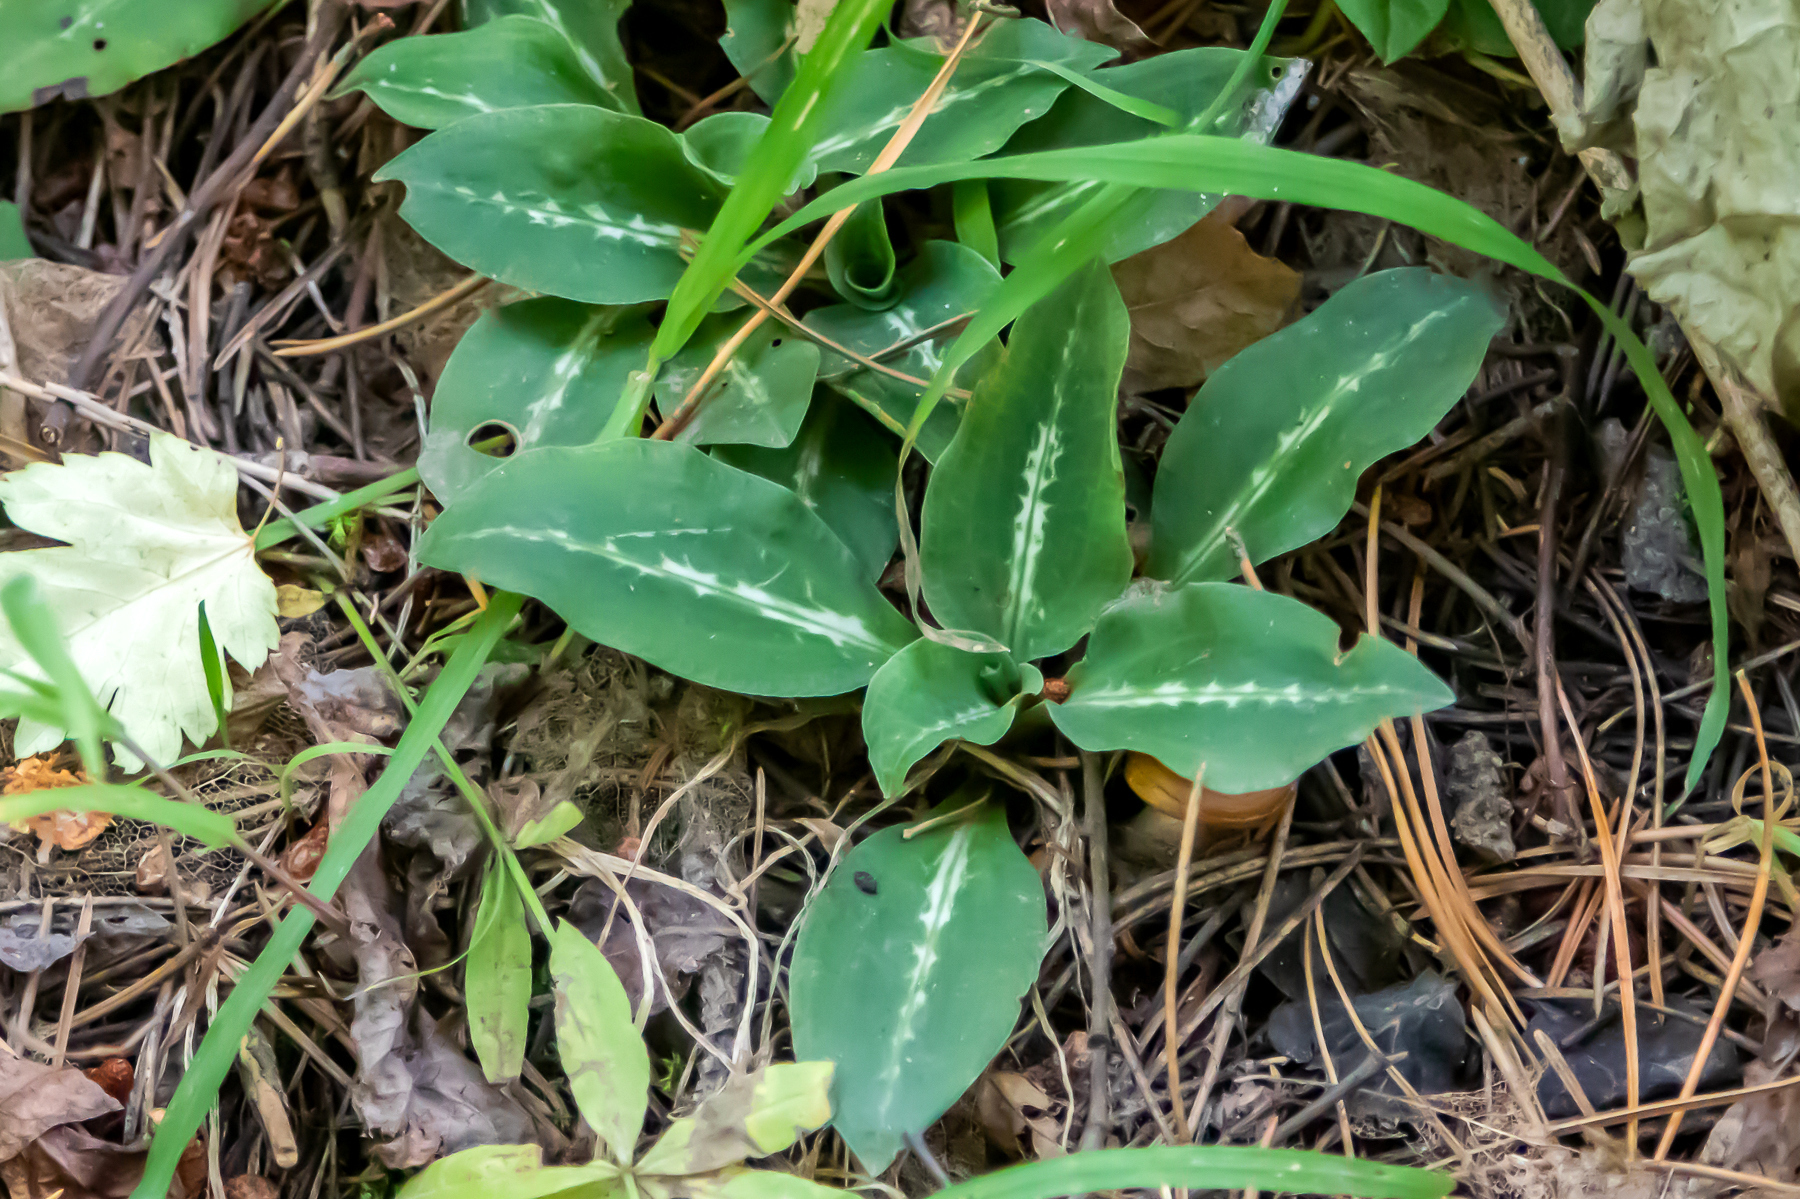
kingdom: Plantae
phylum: Tracheophyta
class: Liliopsida
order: Asparagales
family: Orchidaceae
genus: Goodyera
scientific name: Goodyera oblongifolia
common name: Giant rattlesnake-plantain
